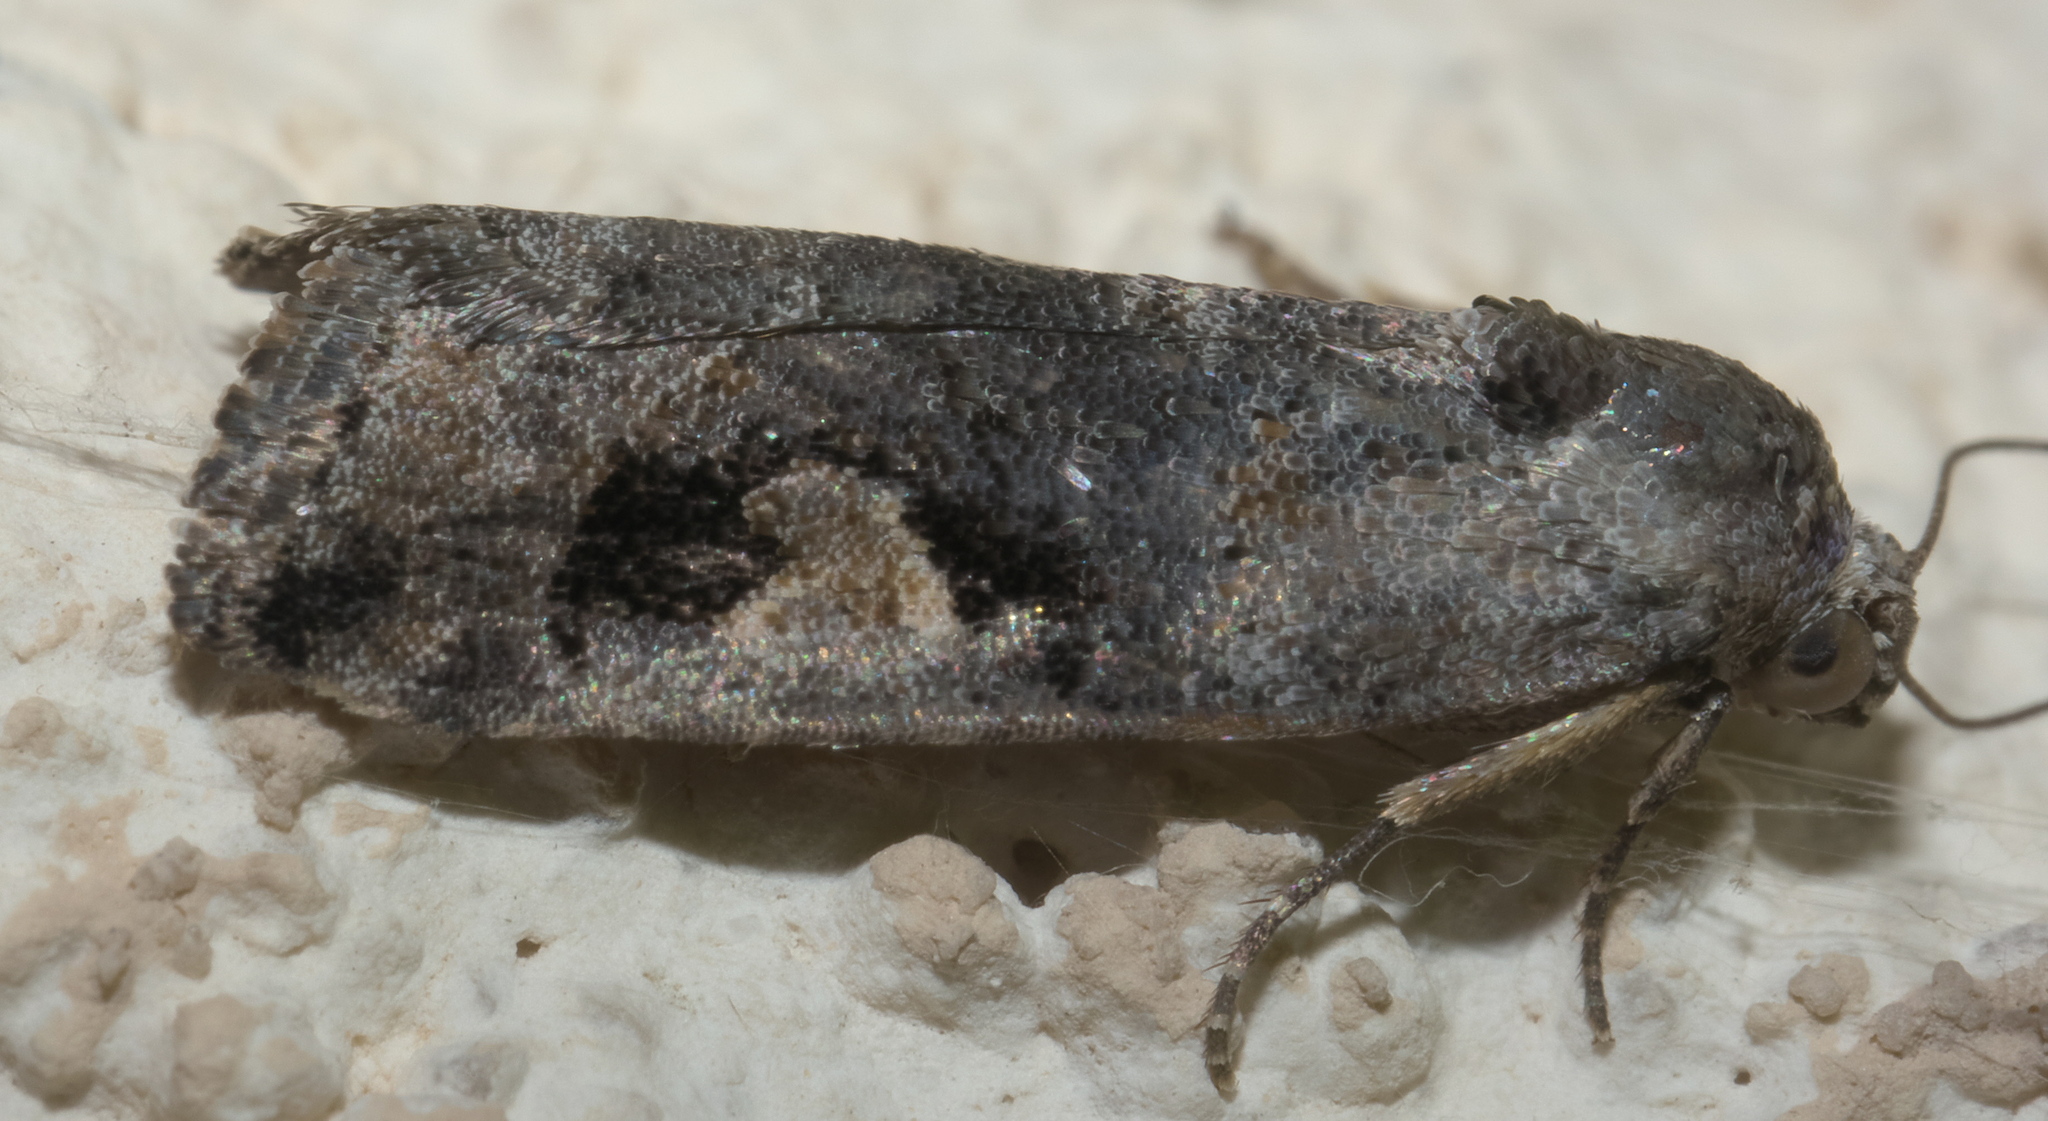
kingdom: Animalia
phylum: Arthropoda
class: Insecta
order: Lepidoptera
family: Noctuidae
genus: Metaponpneumata
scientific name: Metaponpneumata rogenhoferi
